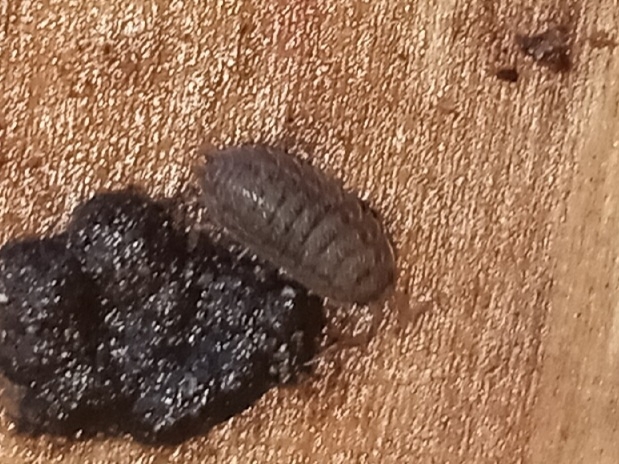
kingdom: Animalia
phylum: Arthropoda
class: Malacostraca
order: Isopoda
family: Trachelipodidae
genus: Trachelipus
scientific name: Trachelipus rathkii
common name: Isopod
